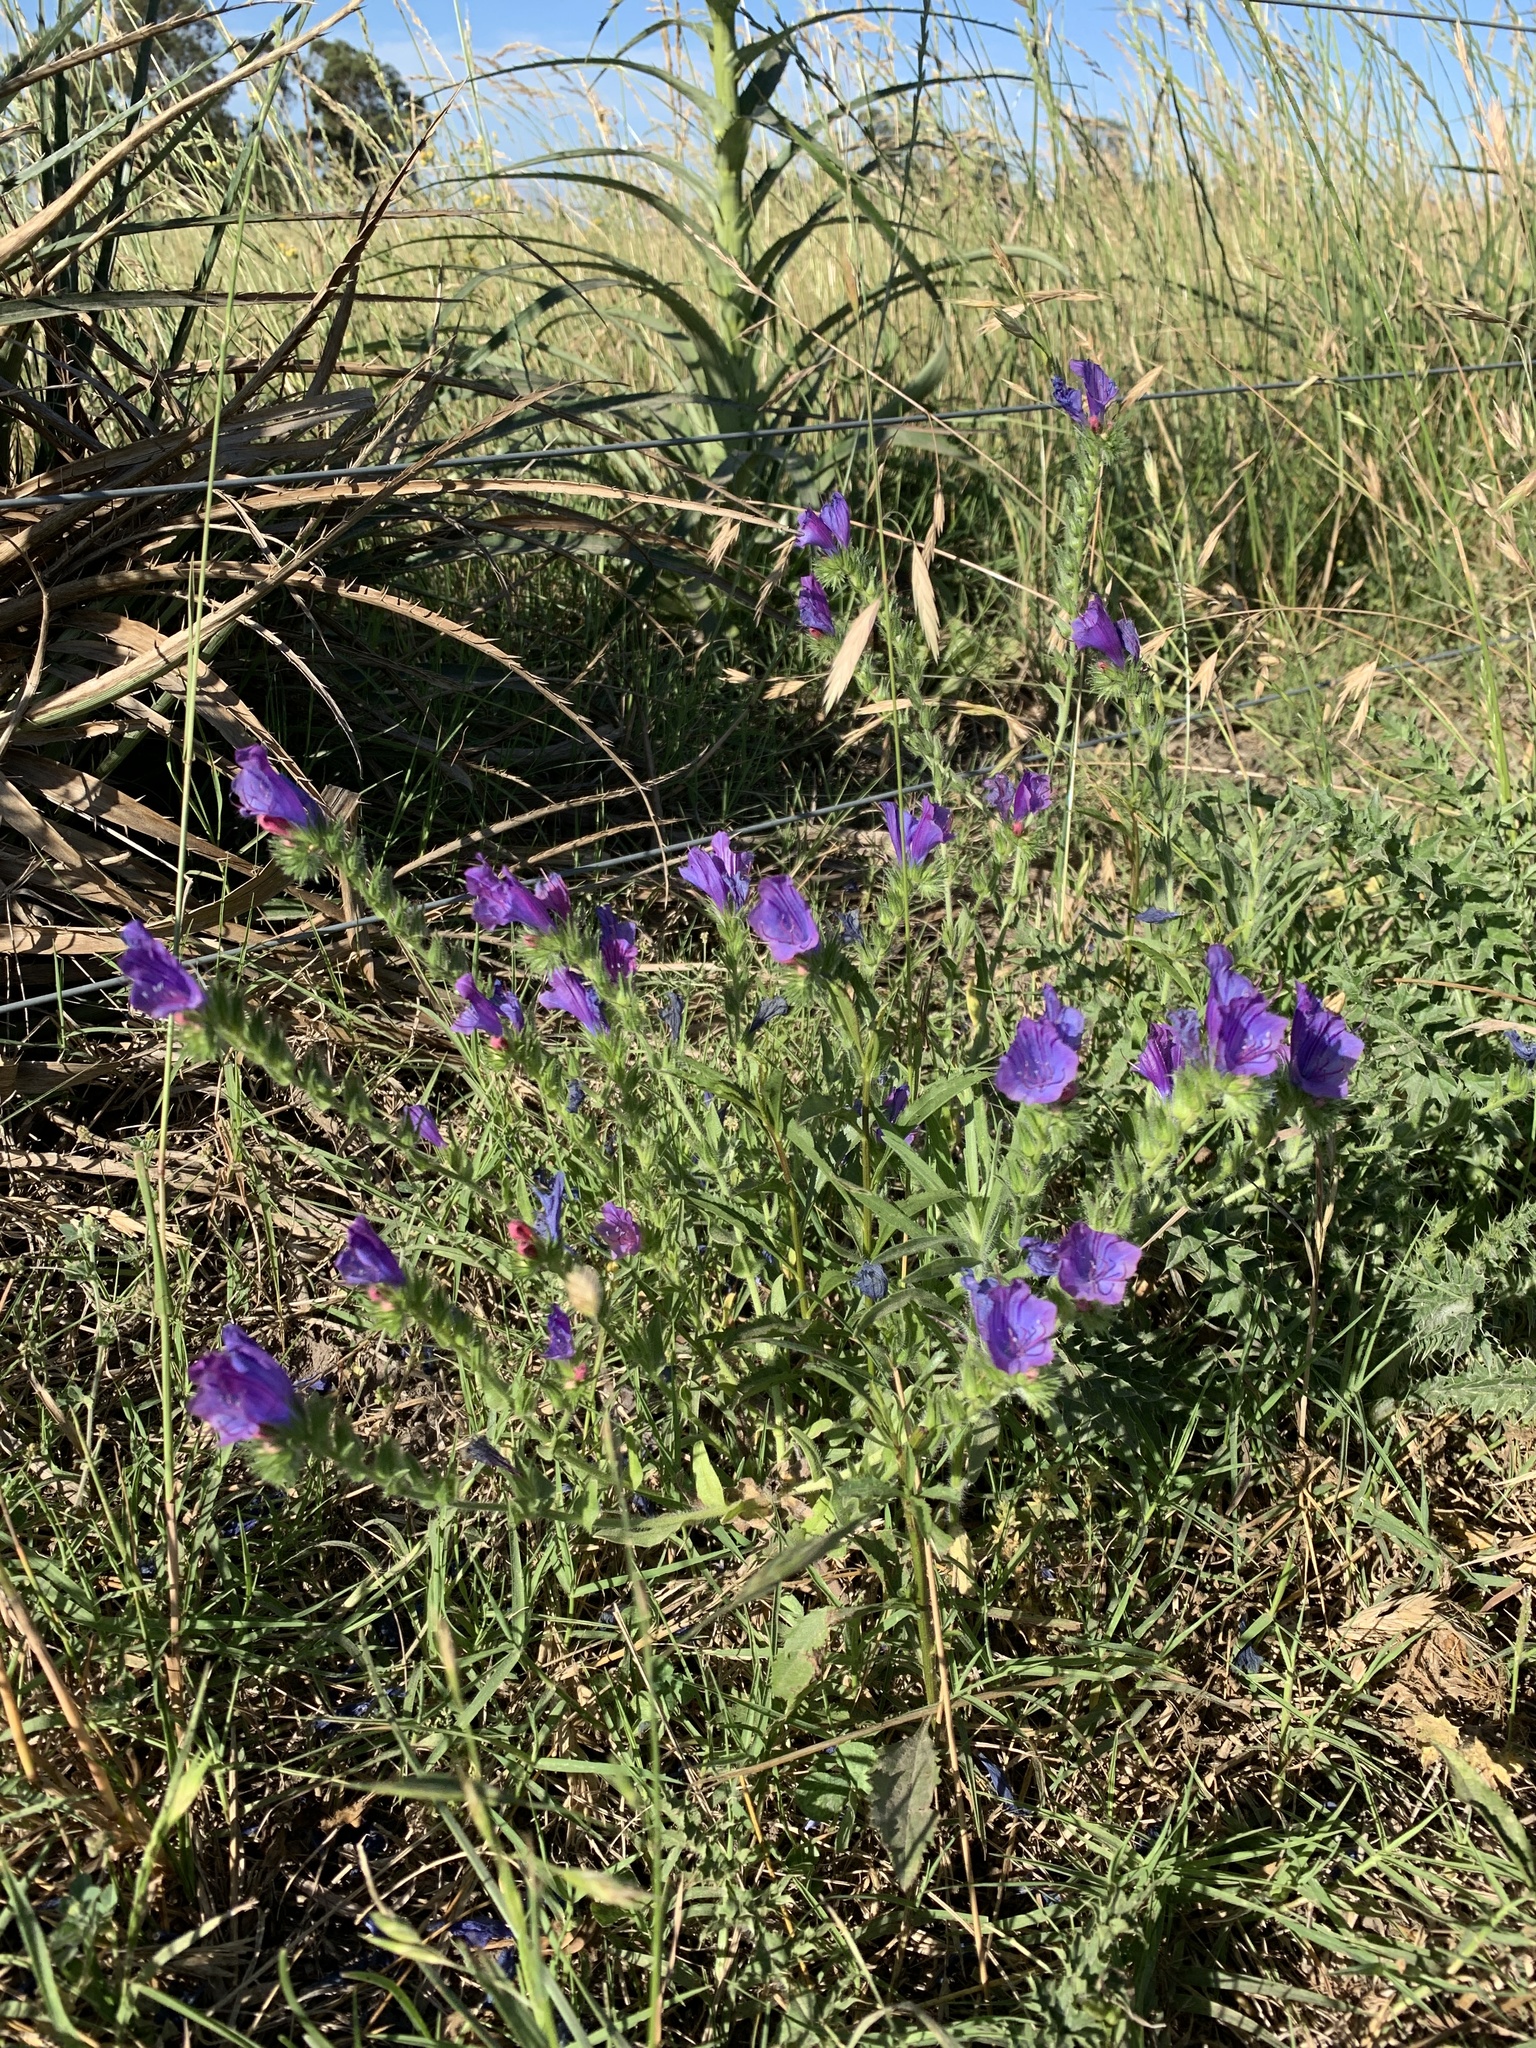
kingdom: Plantae
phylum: Tracheophyta
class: Magnoliopsida
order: Boraginales
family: Boraginaceae
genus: Echium
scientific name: Echium plantagineum
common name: Purple viper's-bugloss
